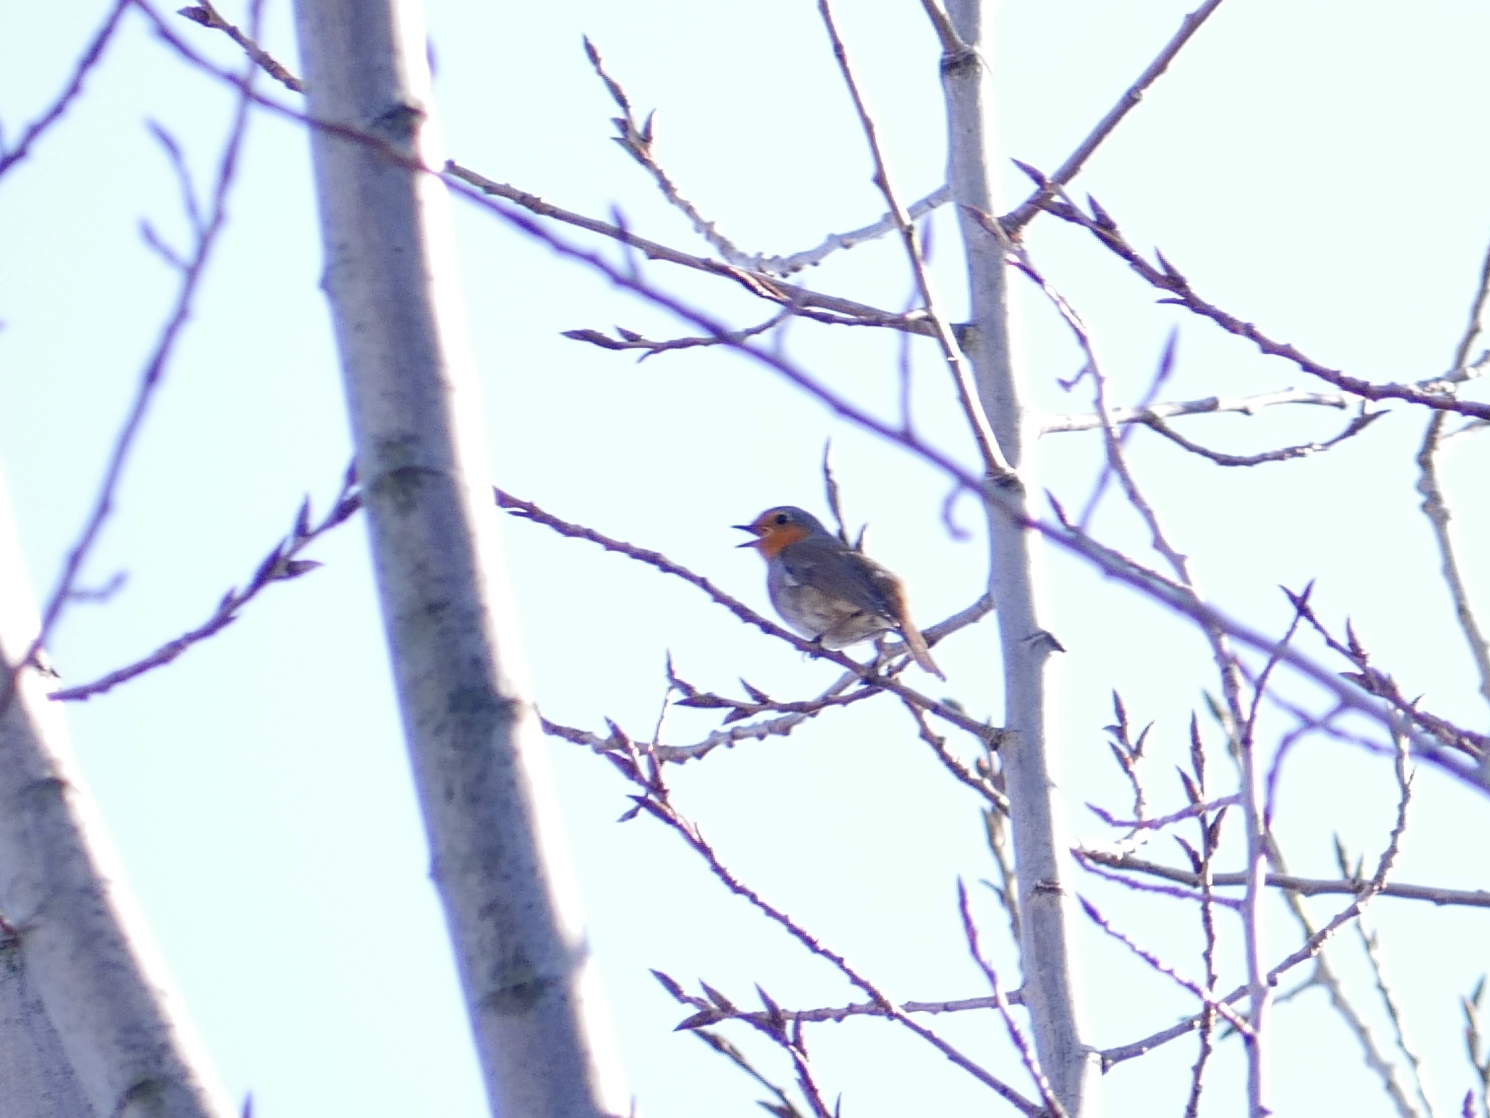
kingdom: Animalia
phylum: Chordata
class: Aves
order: Passeriformes
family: Muscicapidae
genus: Erithacus
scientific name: Erithacus rubecula
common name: European robin
